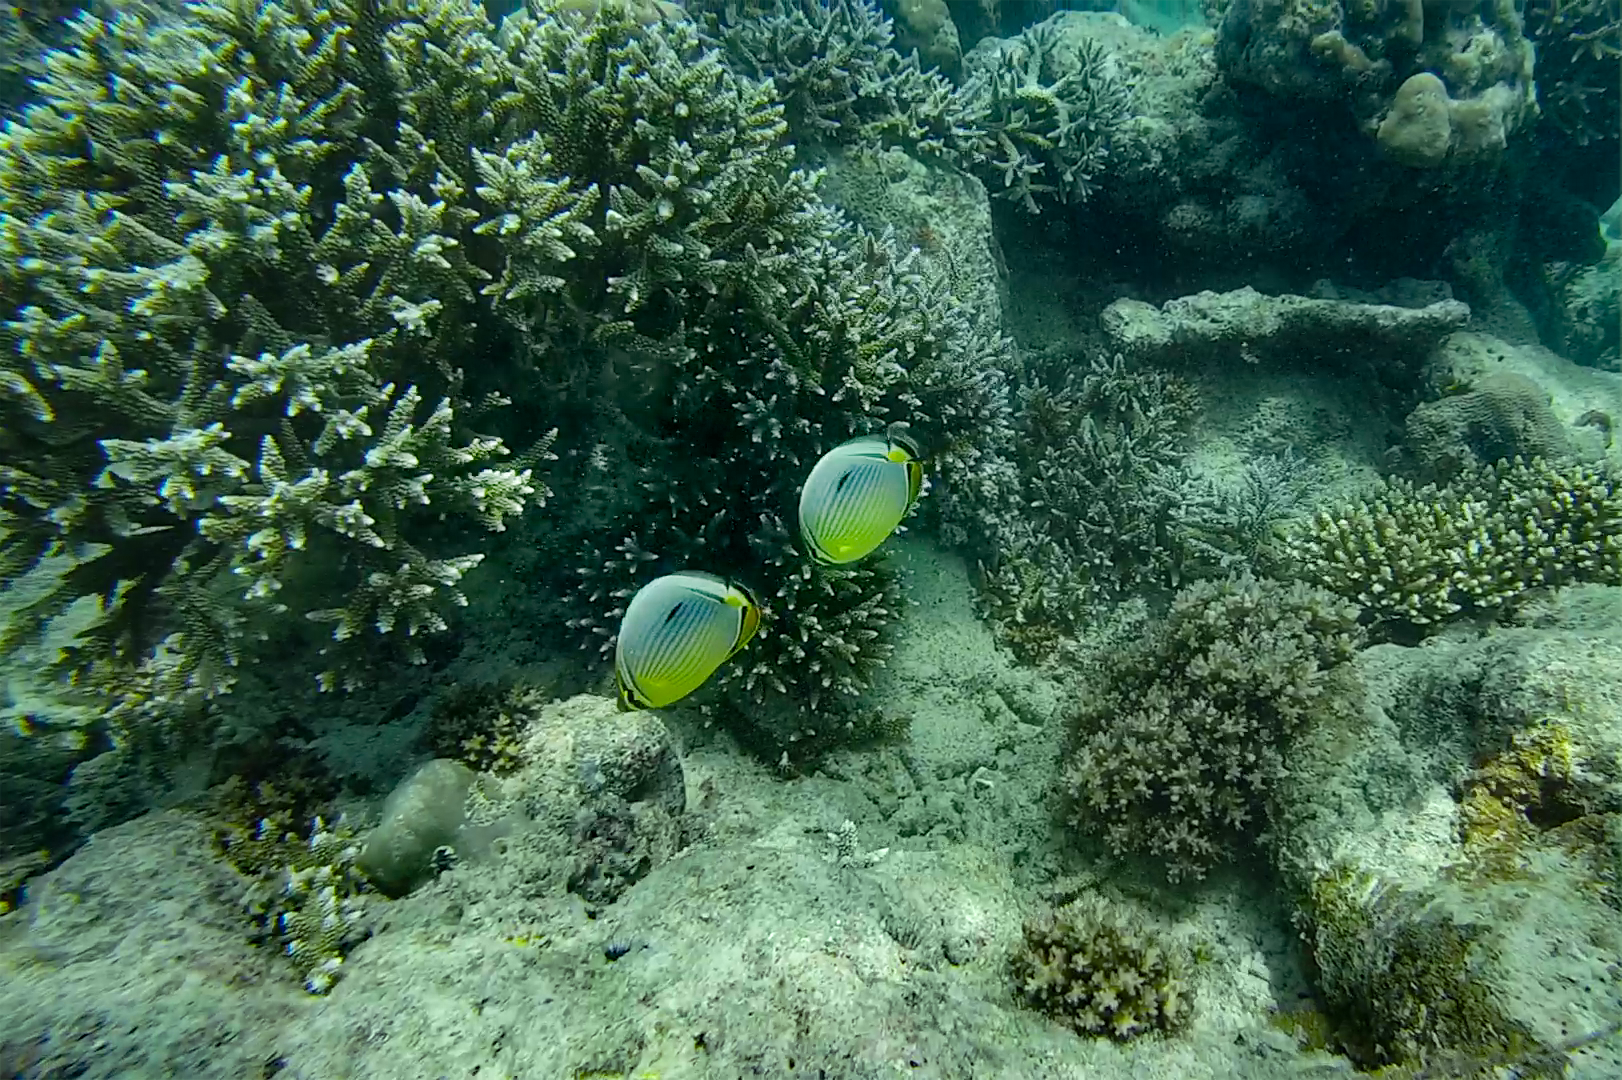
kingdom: Animalia
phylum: Chordata
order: Perciformes
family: Chaetodontidae
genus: Chaetodon
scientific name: Chaetodon trifasciatus
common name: Redfin butterflyfish
